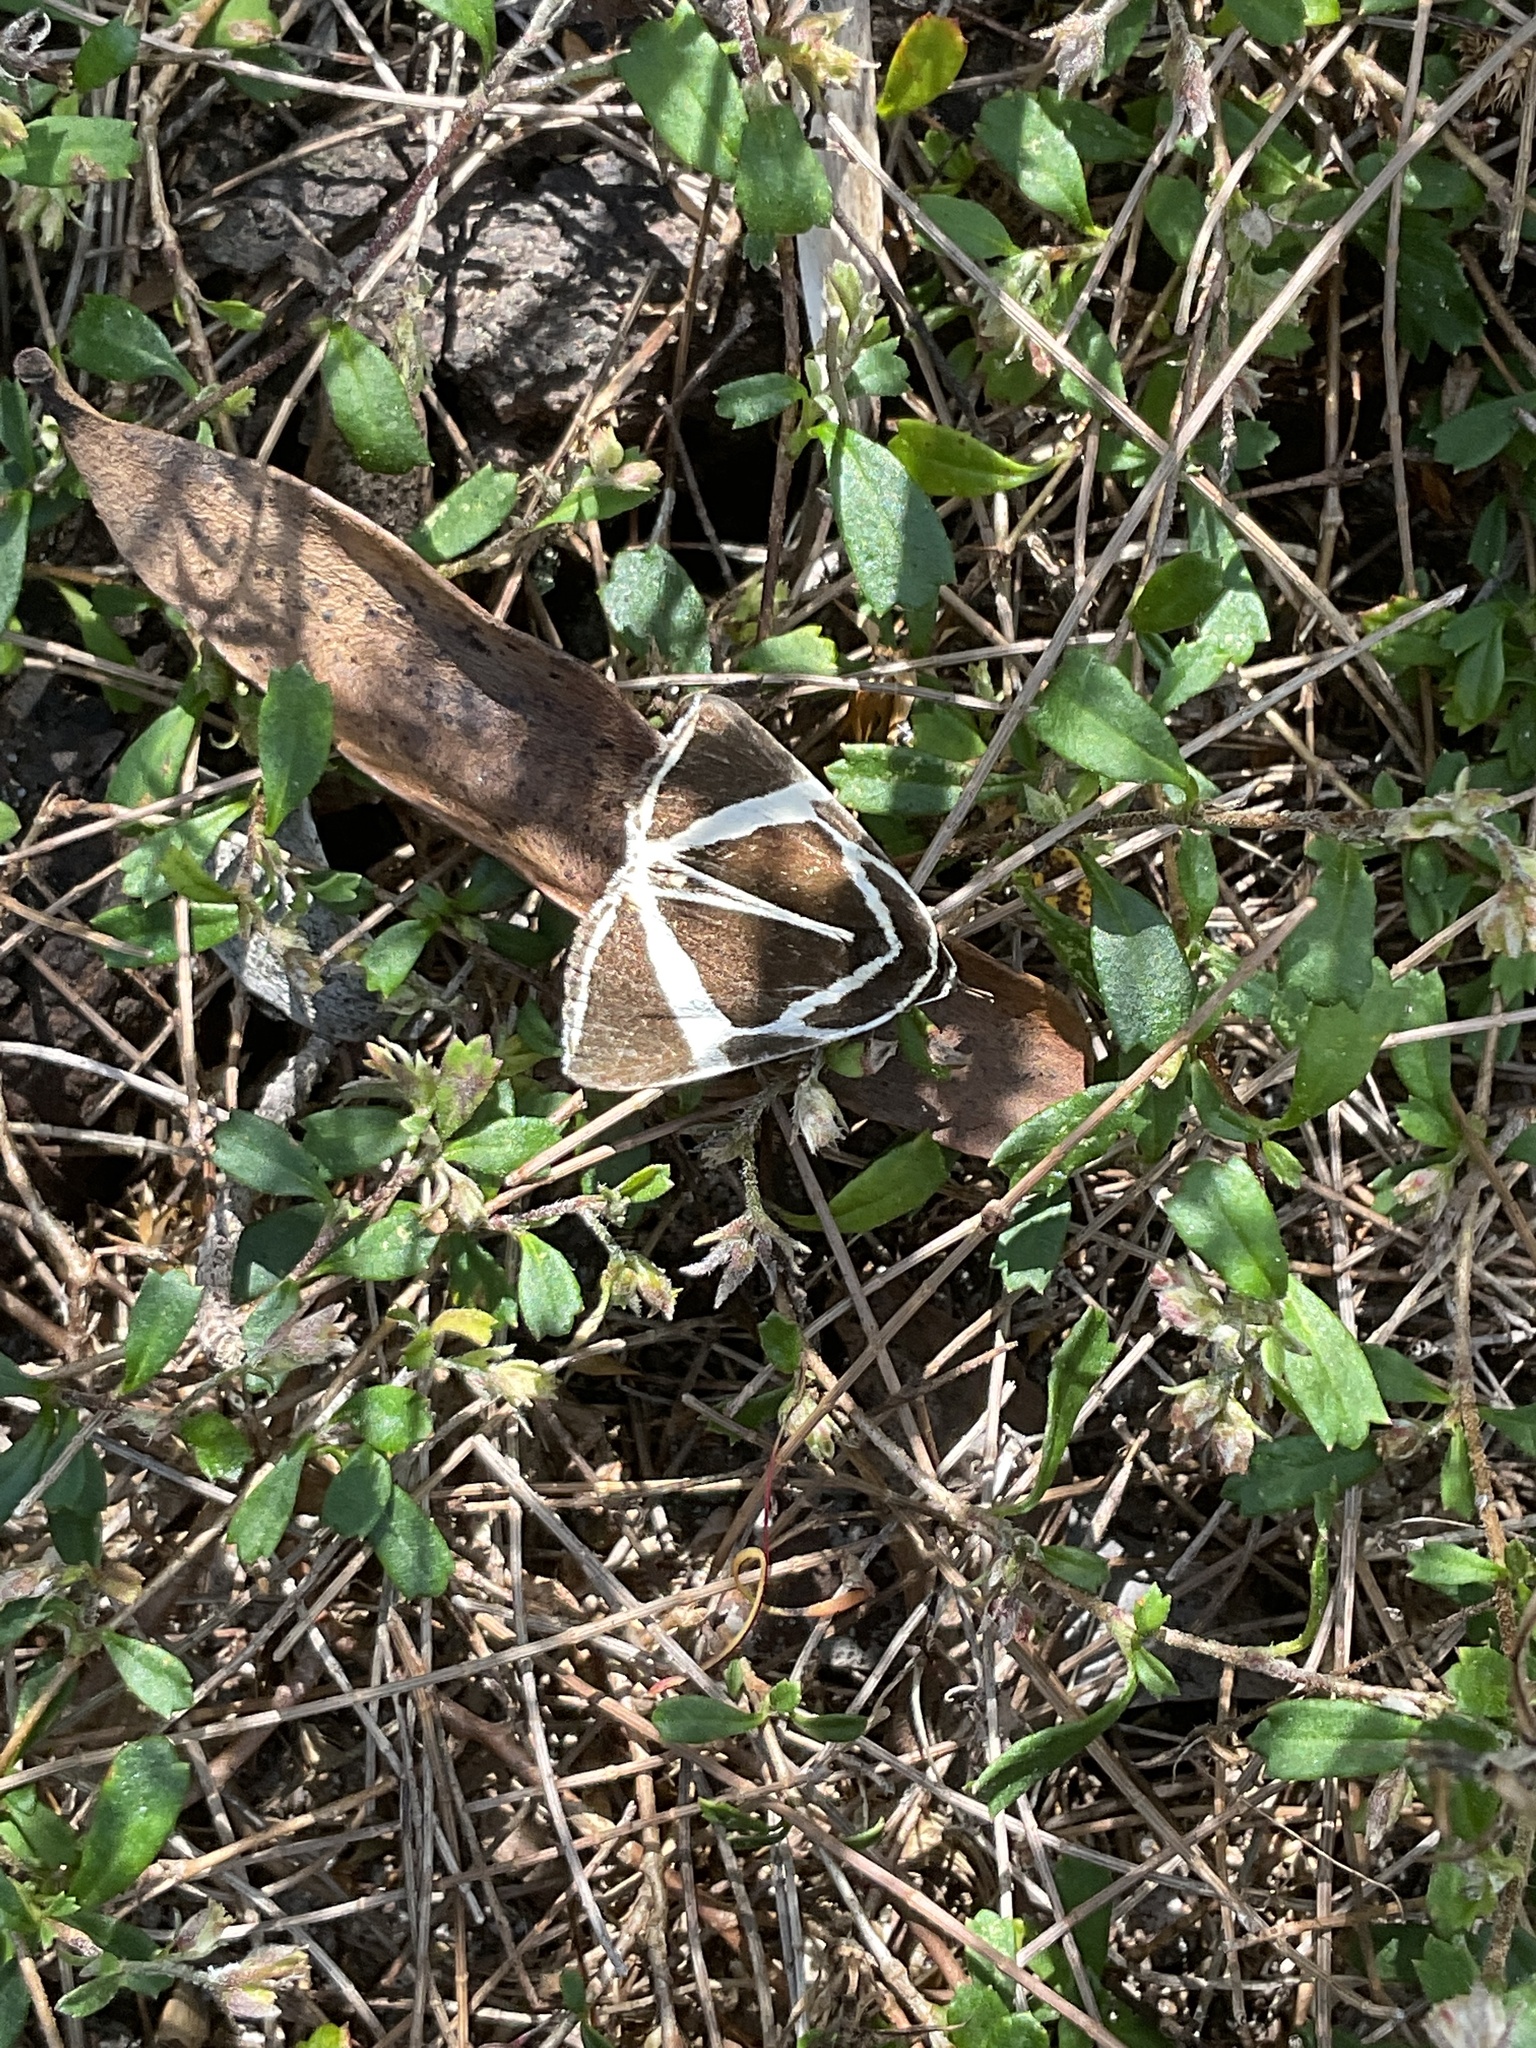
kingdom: Animalia
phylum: Arthropoda
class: Insecta
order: Lepidoptera
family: Erebidae
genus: Fodina
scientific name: Fodina ostorius
